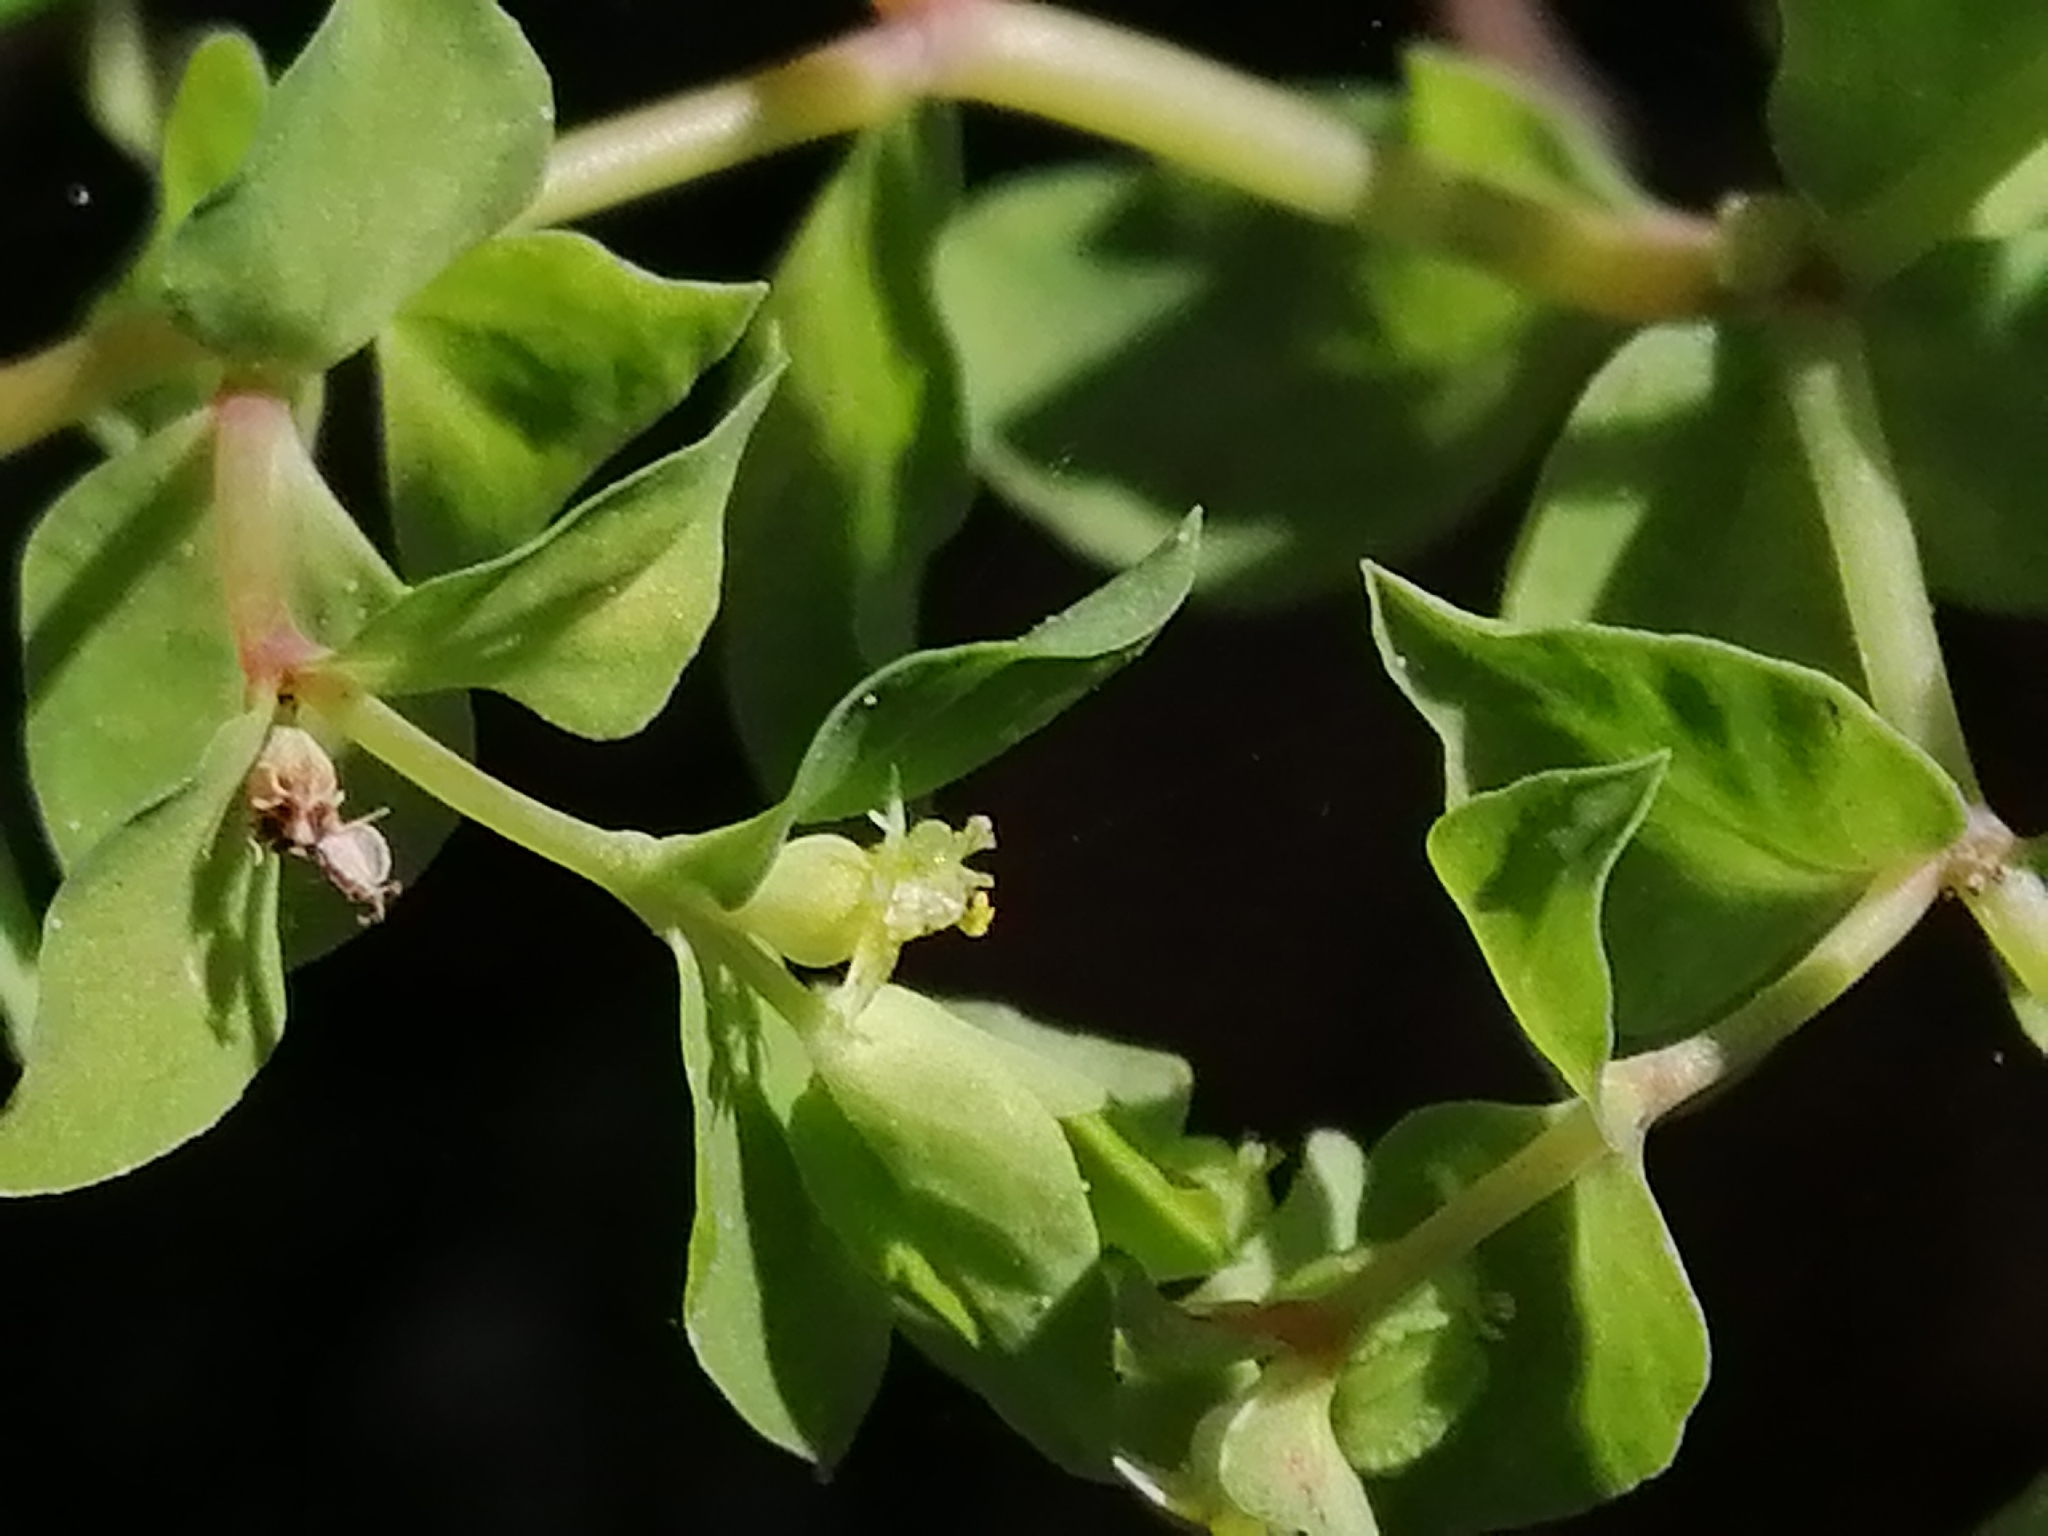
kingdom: Plantae
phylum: Tracheophyta
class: Magnoliopsida
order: Malpighiales
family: Euphorbiaceae
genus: Euphorbia
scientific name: Euphorbia peplus
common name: Petty spurge
